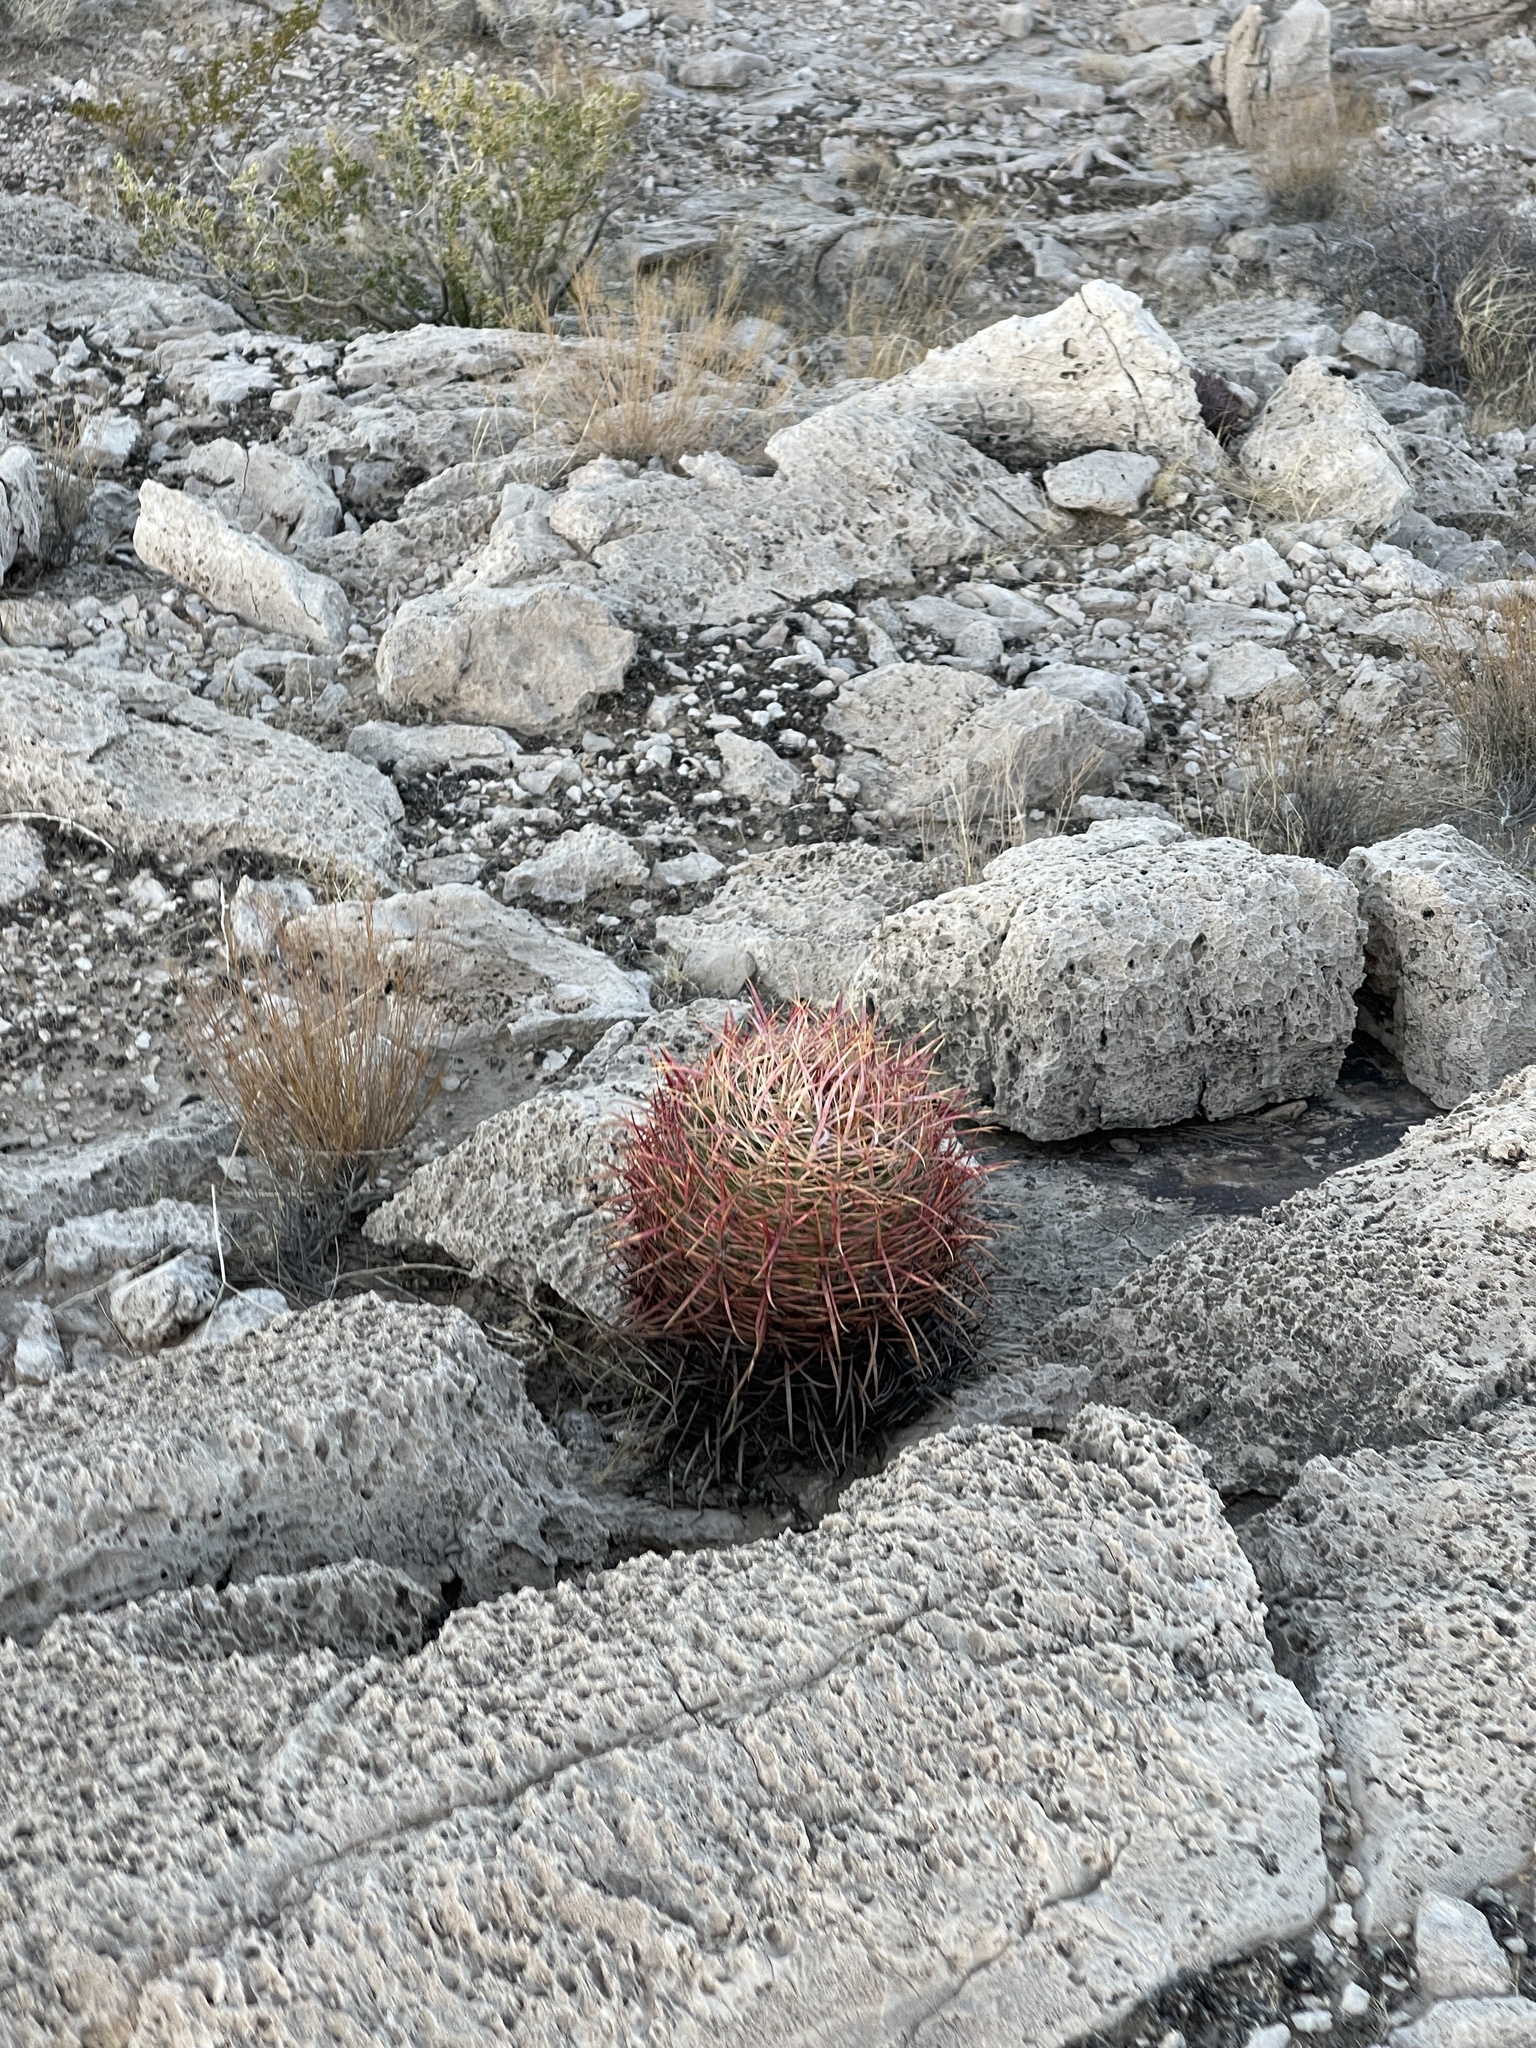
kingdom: Plantae
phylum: Tracheophyta
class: Magnoliopsida
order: Caryophyllales
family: Cactaceae
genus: Ferocactus
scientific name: Ferocactus cylindraceus
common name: California barrel cactus
